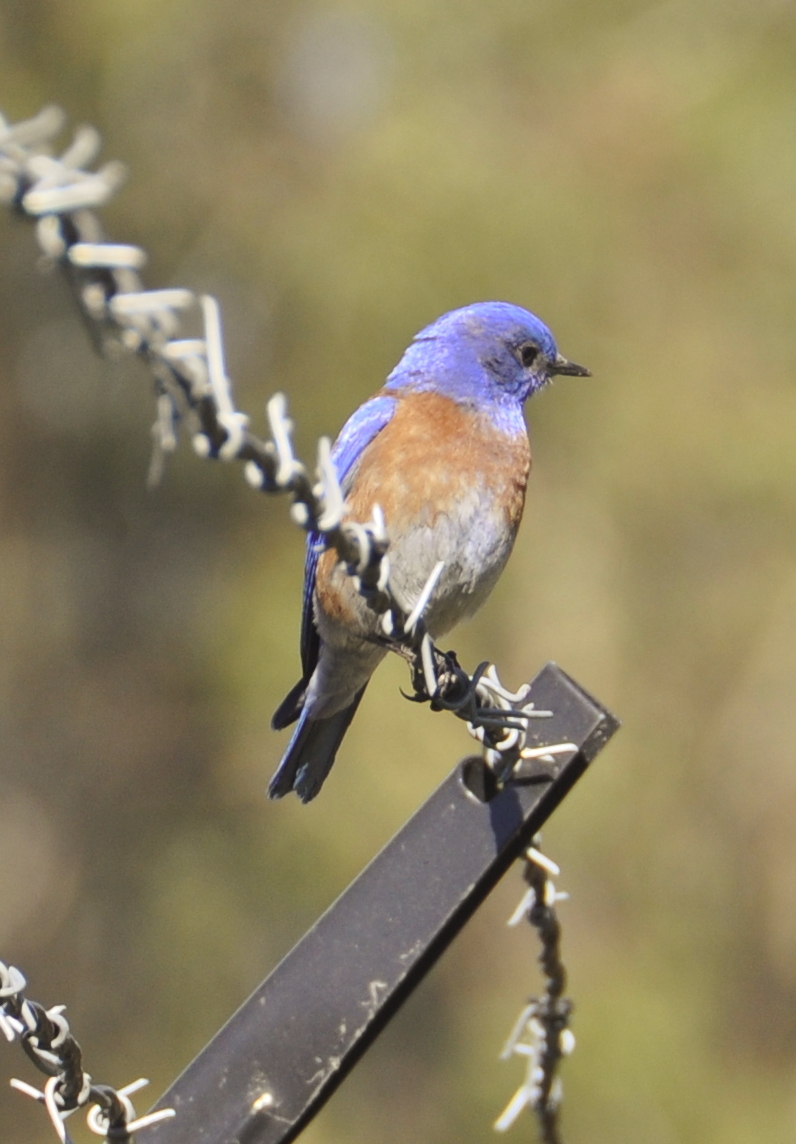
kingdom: Animalia
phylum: Chordata
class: Aves
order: Passeriformes
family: Turdidae
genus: Sialia
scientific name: Sialia mexicana
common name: Western bluebird
